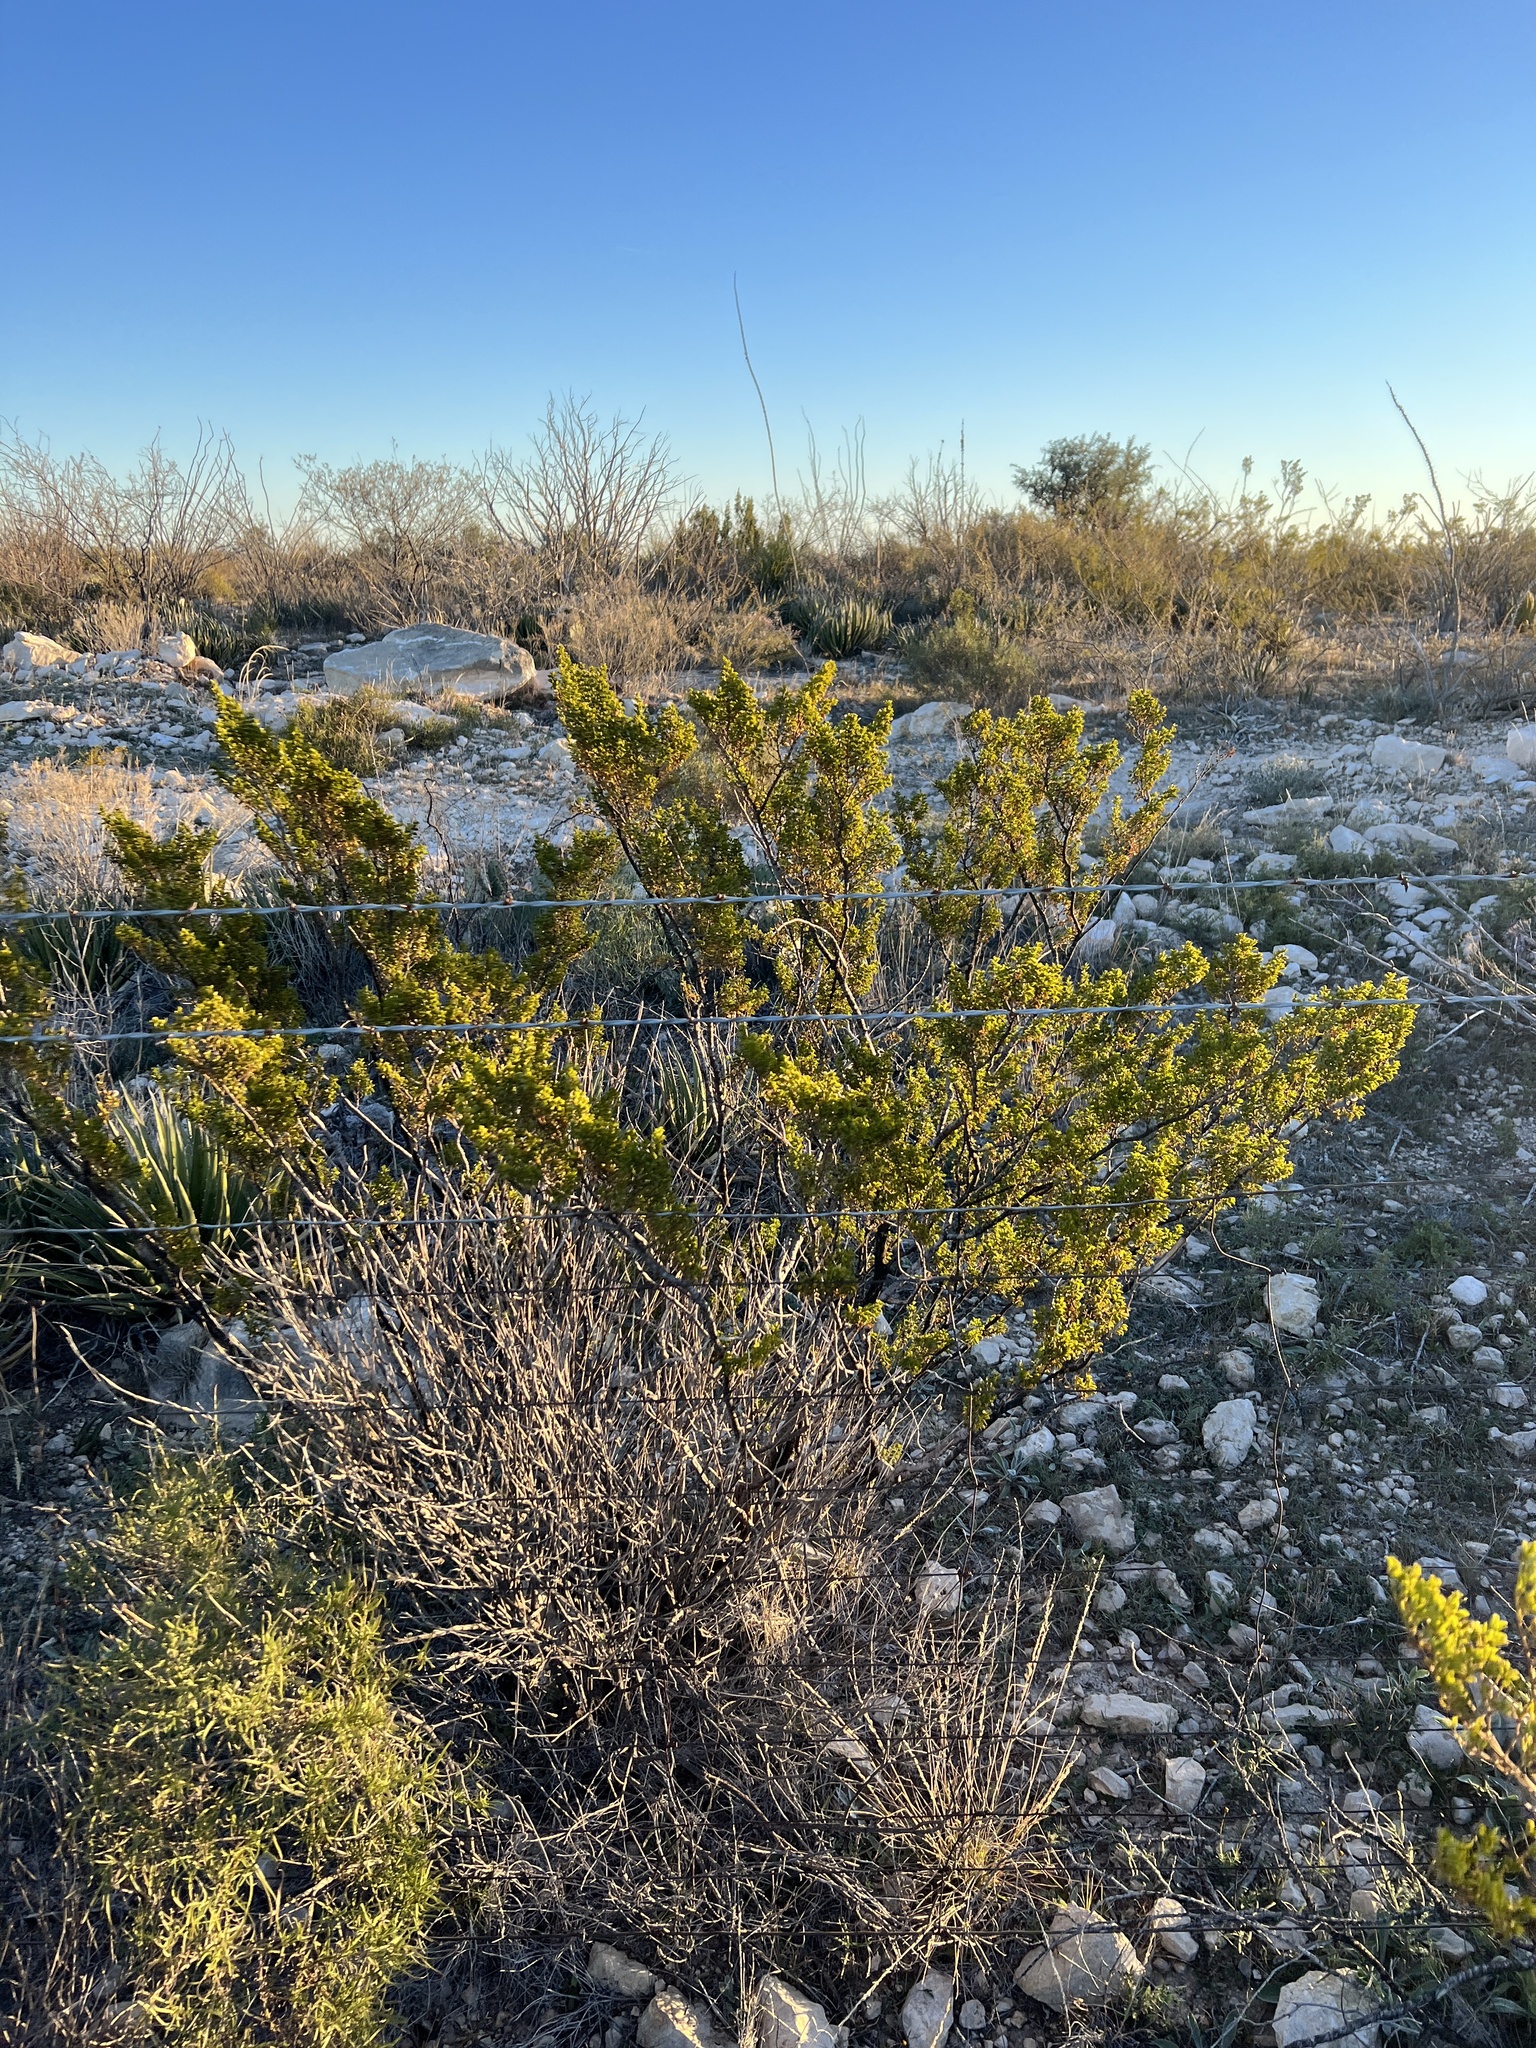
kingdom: Plantae
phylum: Tracheophyta
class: Magnoliopsida
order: Zygophyllales
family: Zygophyllaceae
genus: Larrea
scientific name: Larrea tridentata
